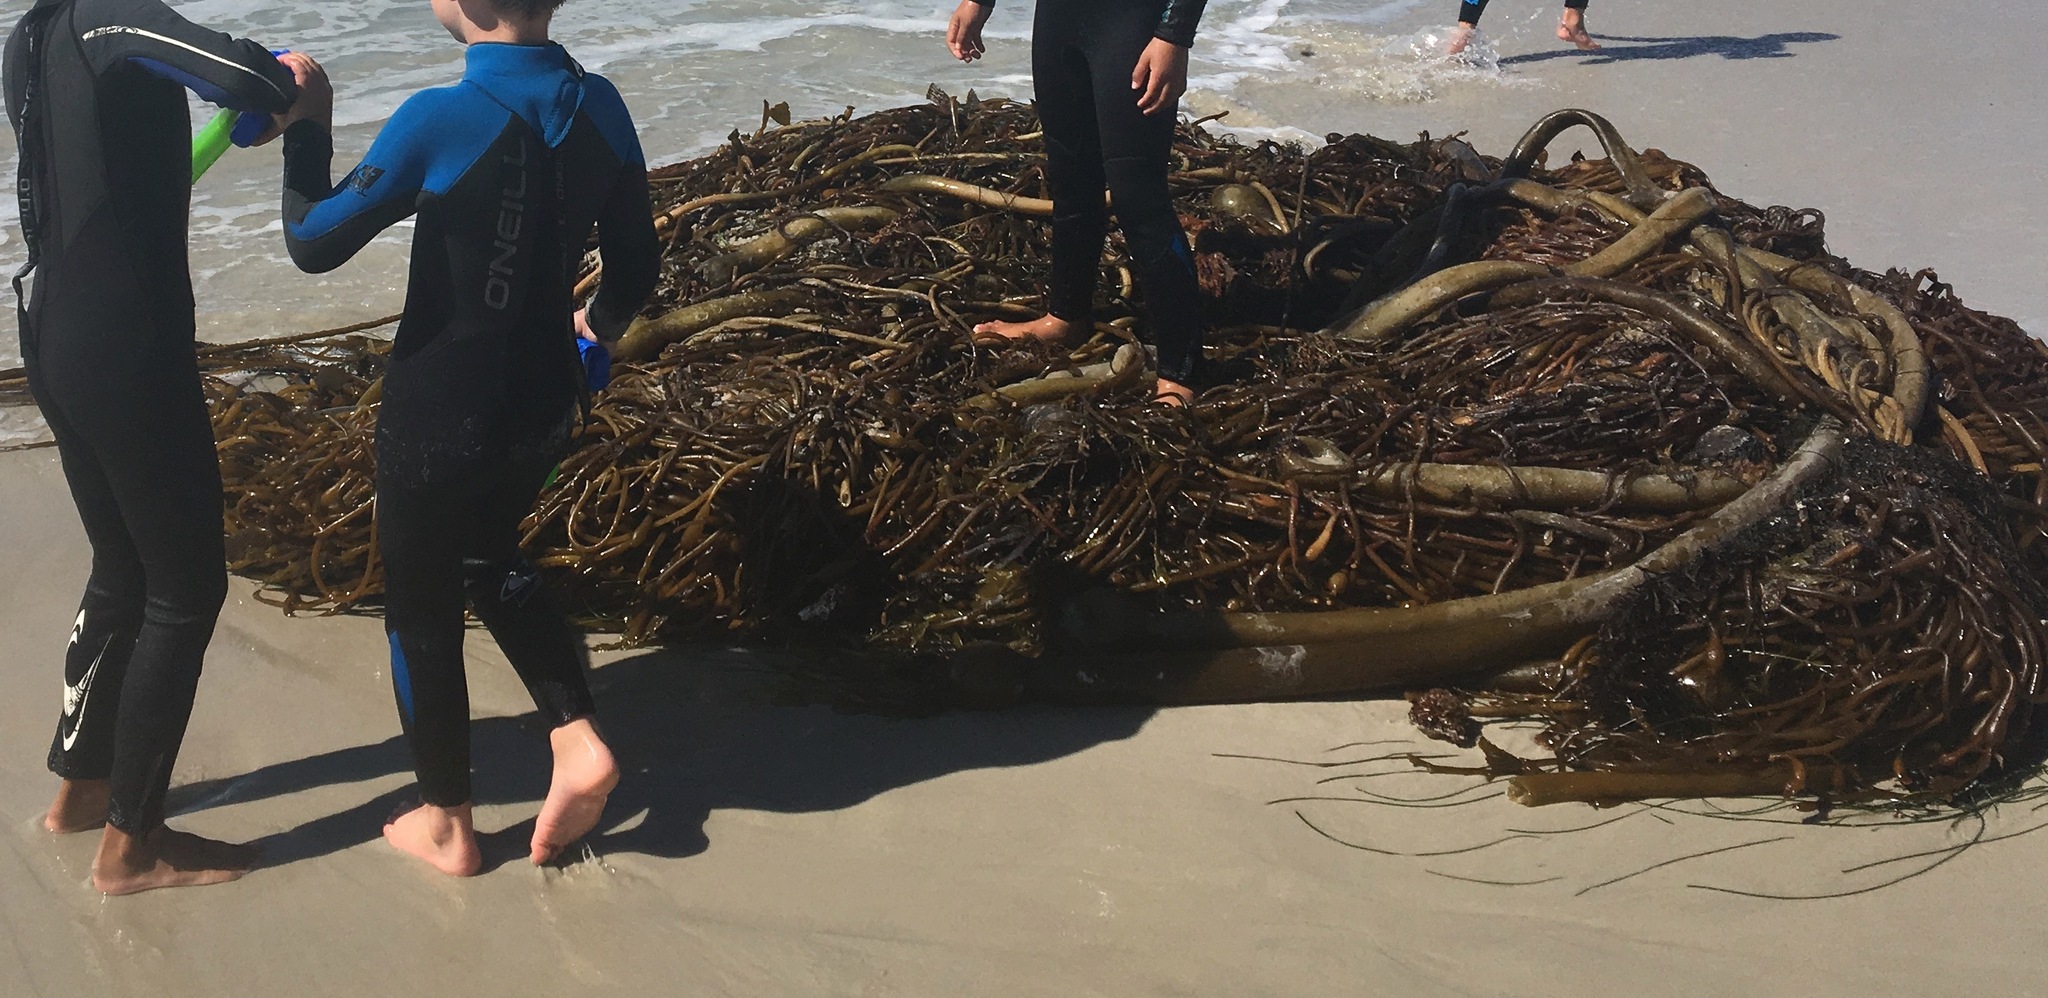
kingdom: Chromista
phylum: Ochrophyta
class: Phaeophyceae
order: Laminariales
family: Laminariaceae
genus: Nereocystis
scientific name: Nereocystis luetkeana
